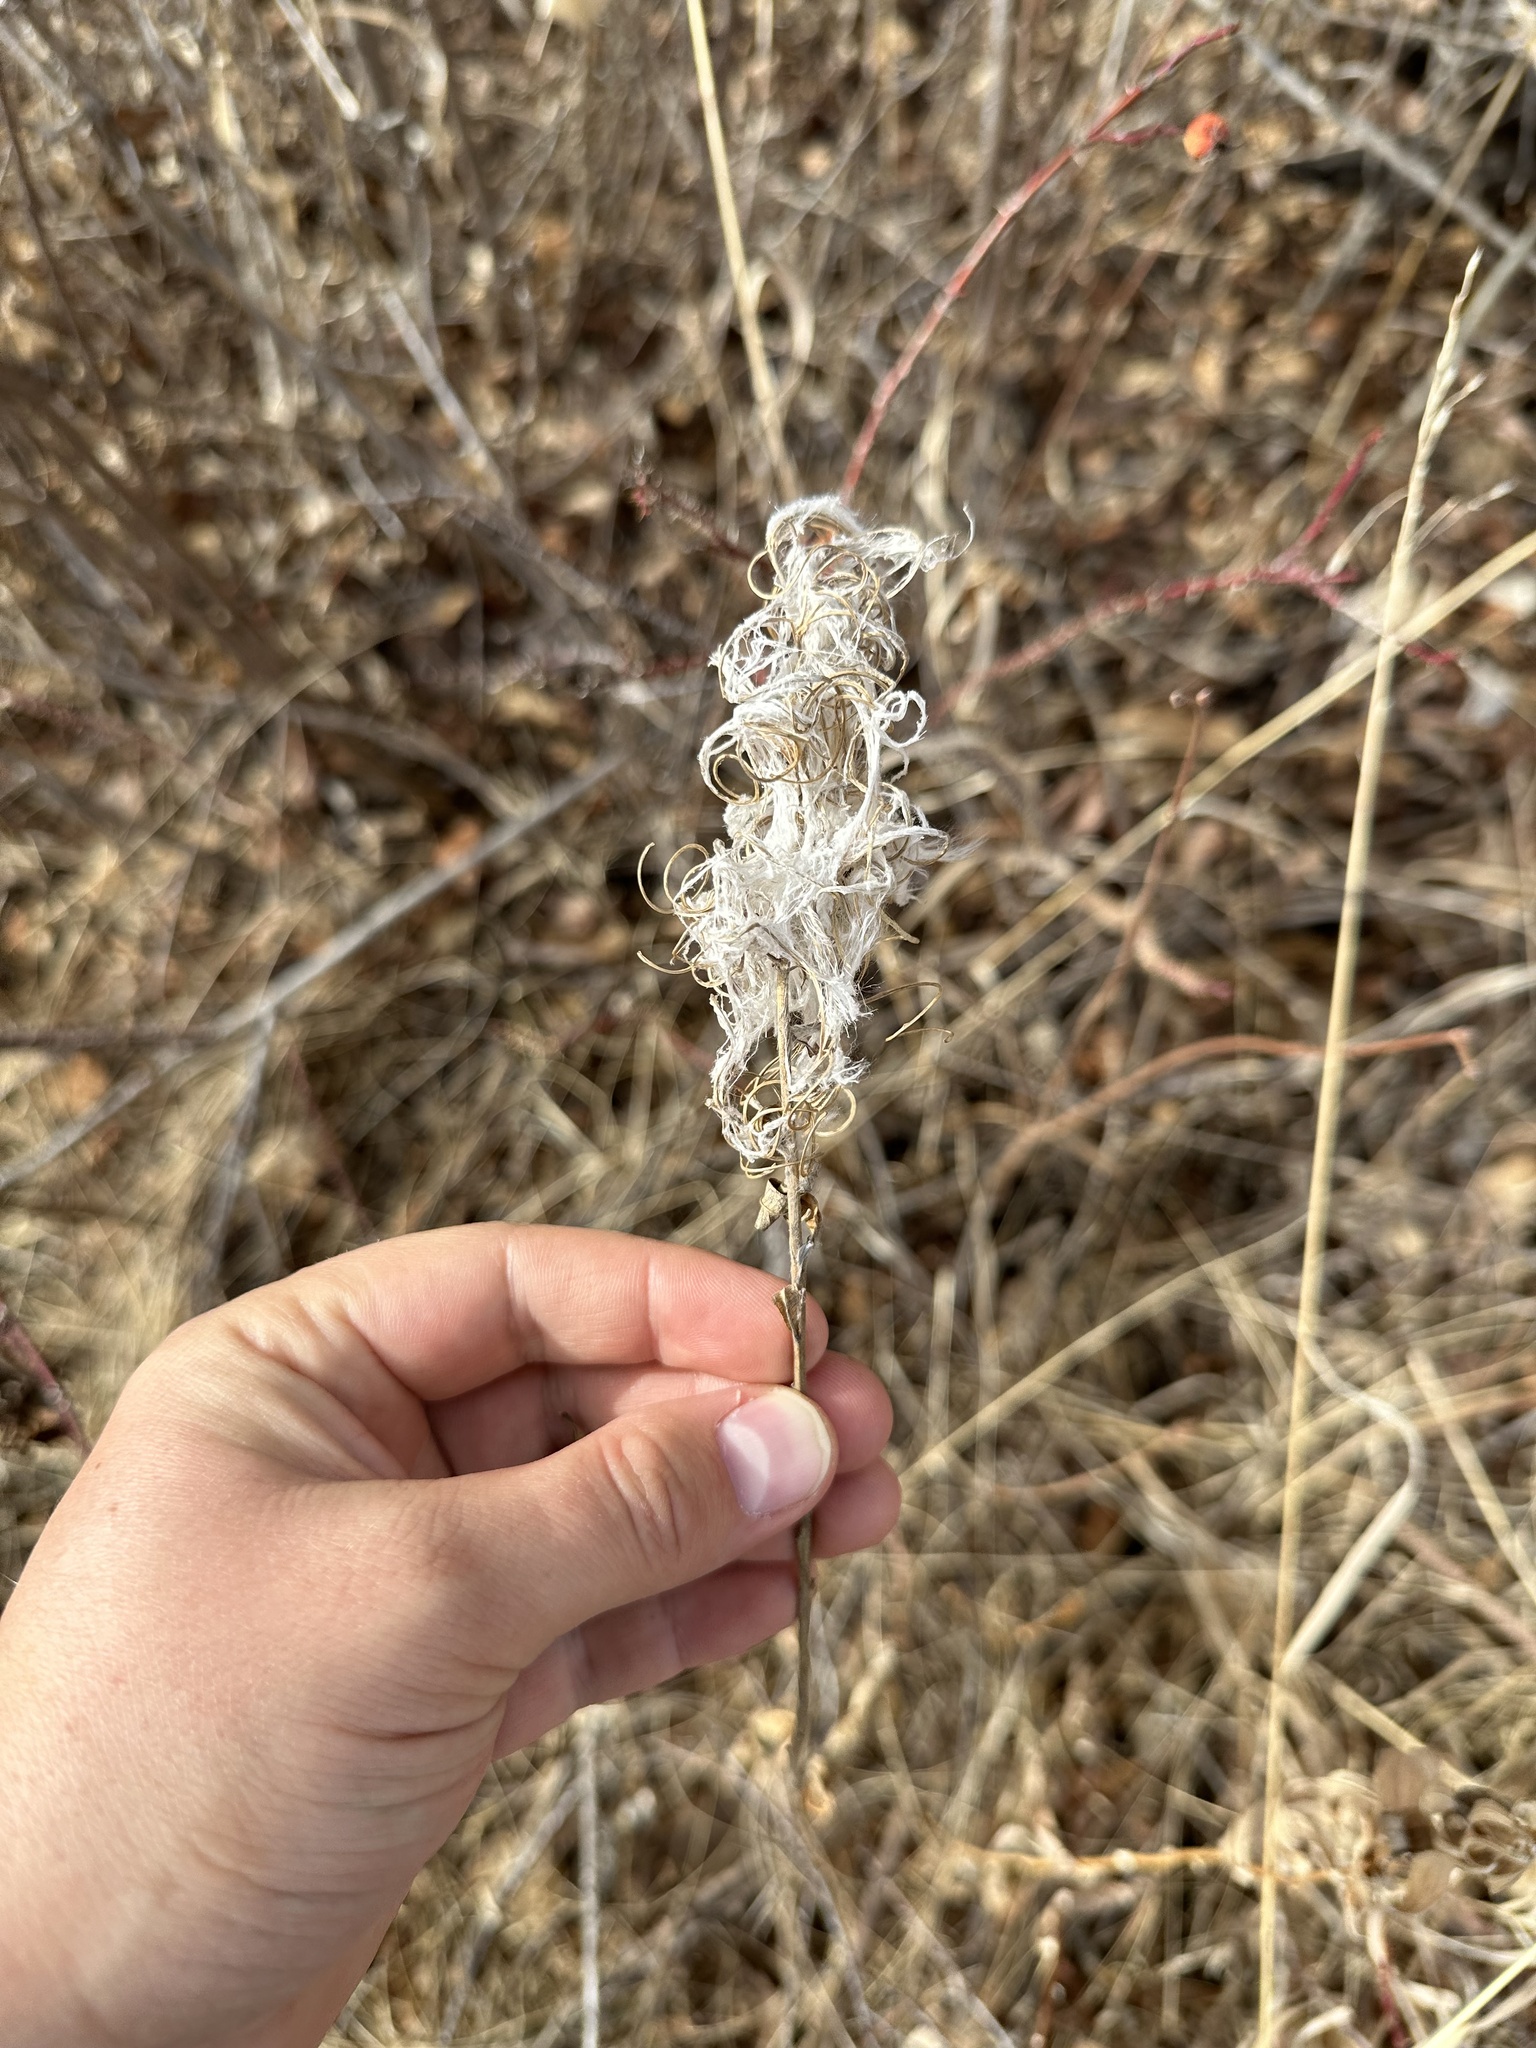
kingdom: Plantae
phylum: Tracheophyta
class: Magnoliopsida
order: Myrtales
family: Onagraceae
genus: Chamaenerion
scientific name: Chamaenerion angustifolium
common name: Fireweed
